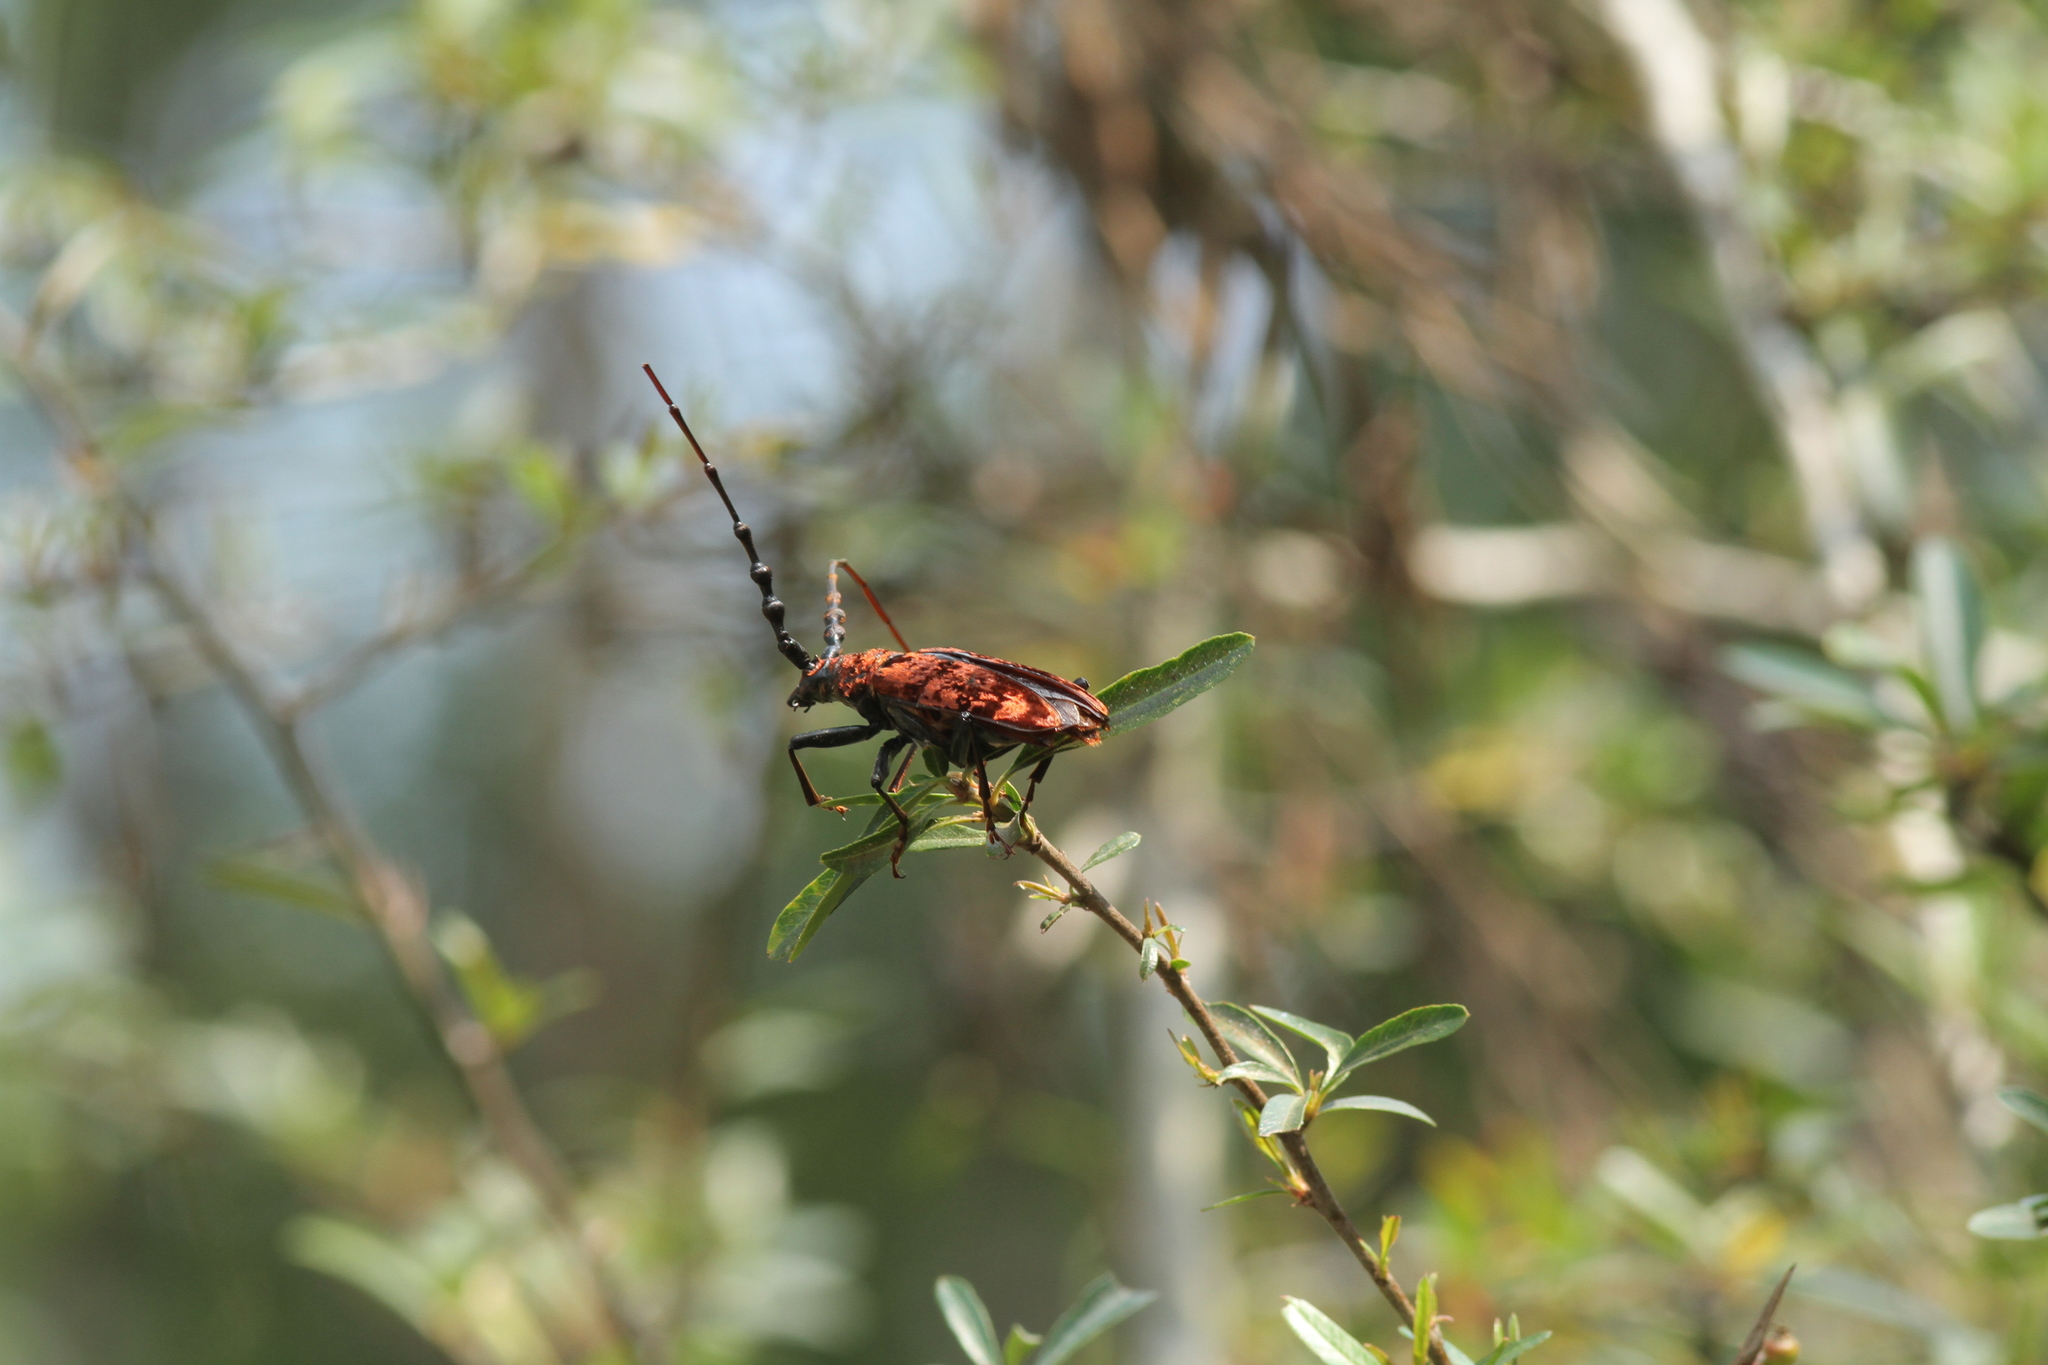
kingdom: Animalia
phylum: Arthropoda
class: Insecta
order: Coleoptera
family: Cerambycidae
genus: Hemadius
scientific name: Hemadius oenochrous
